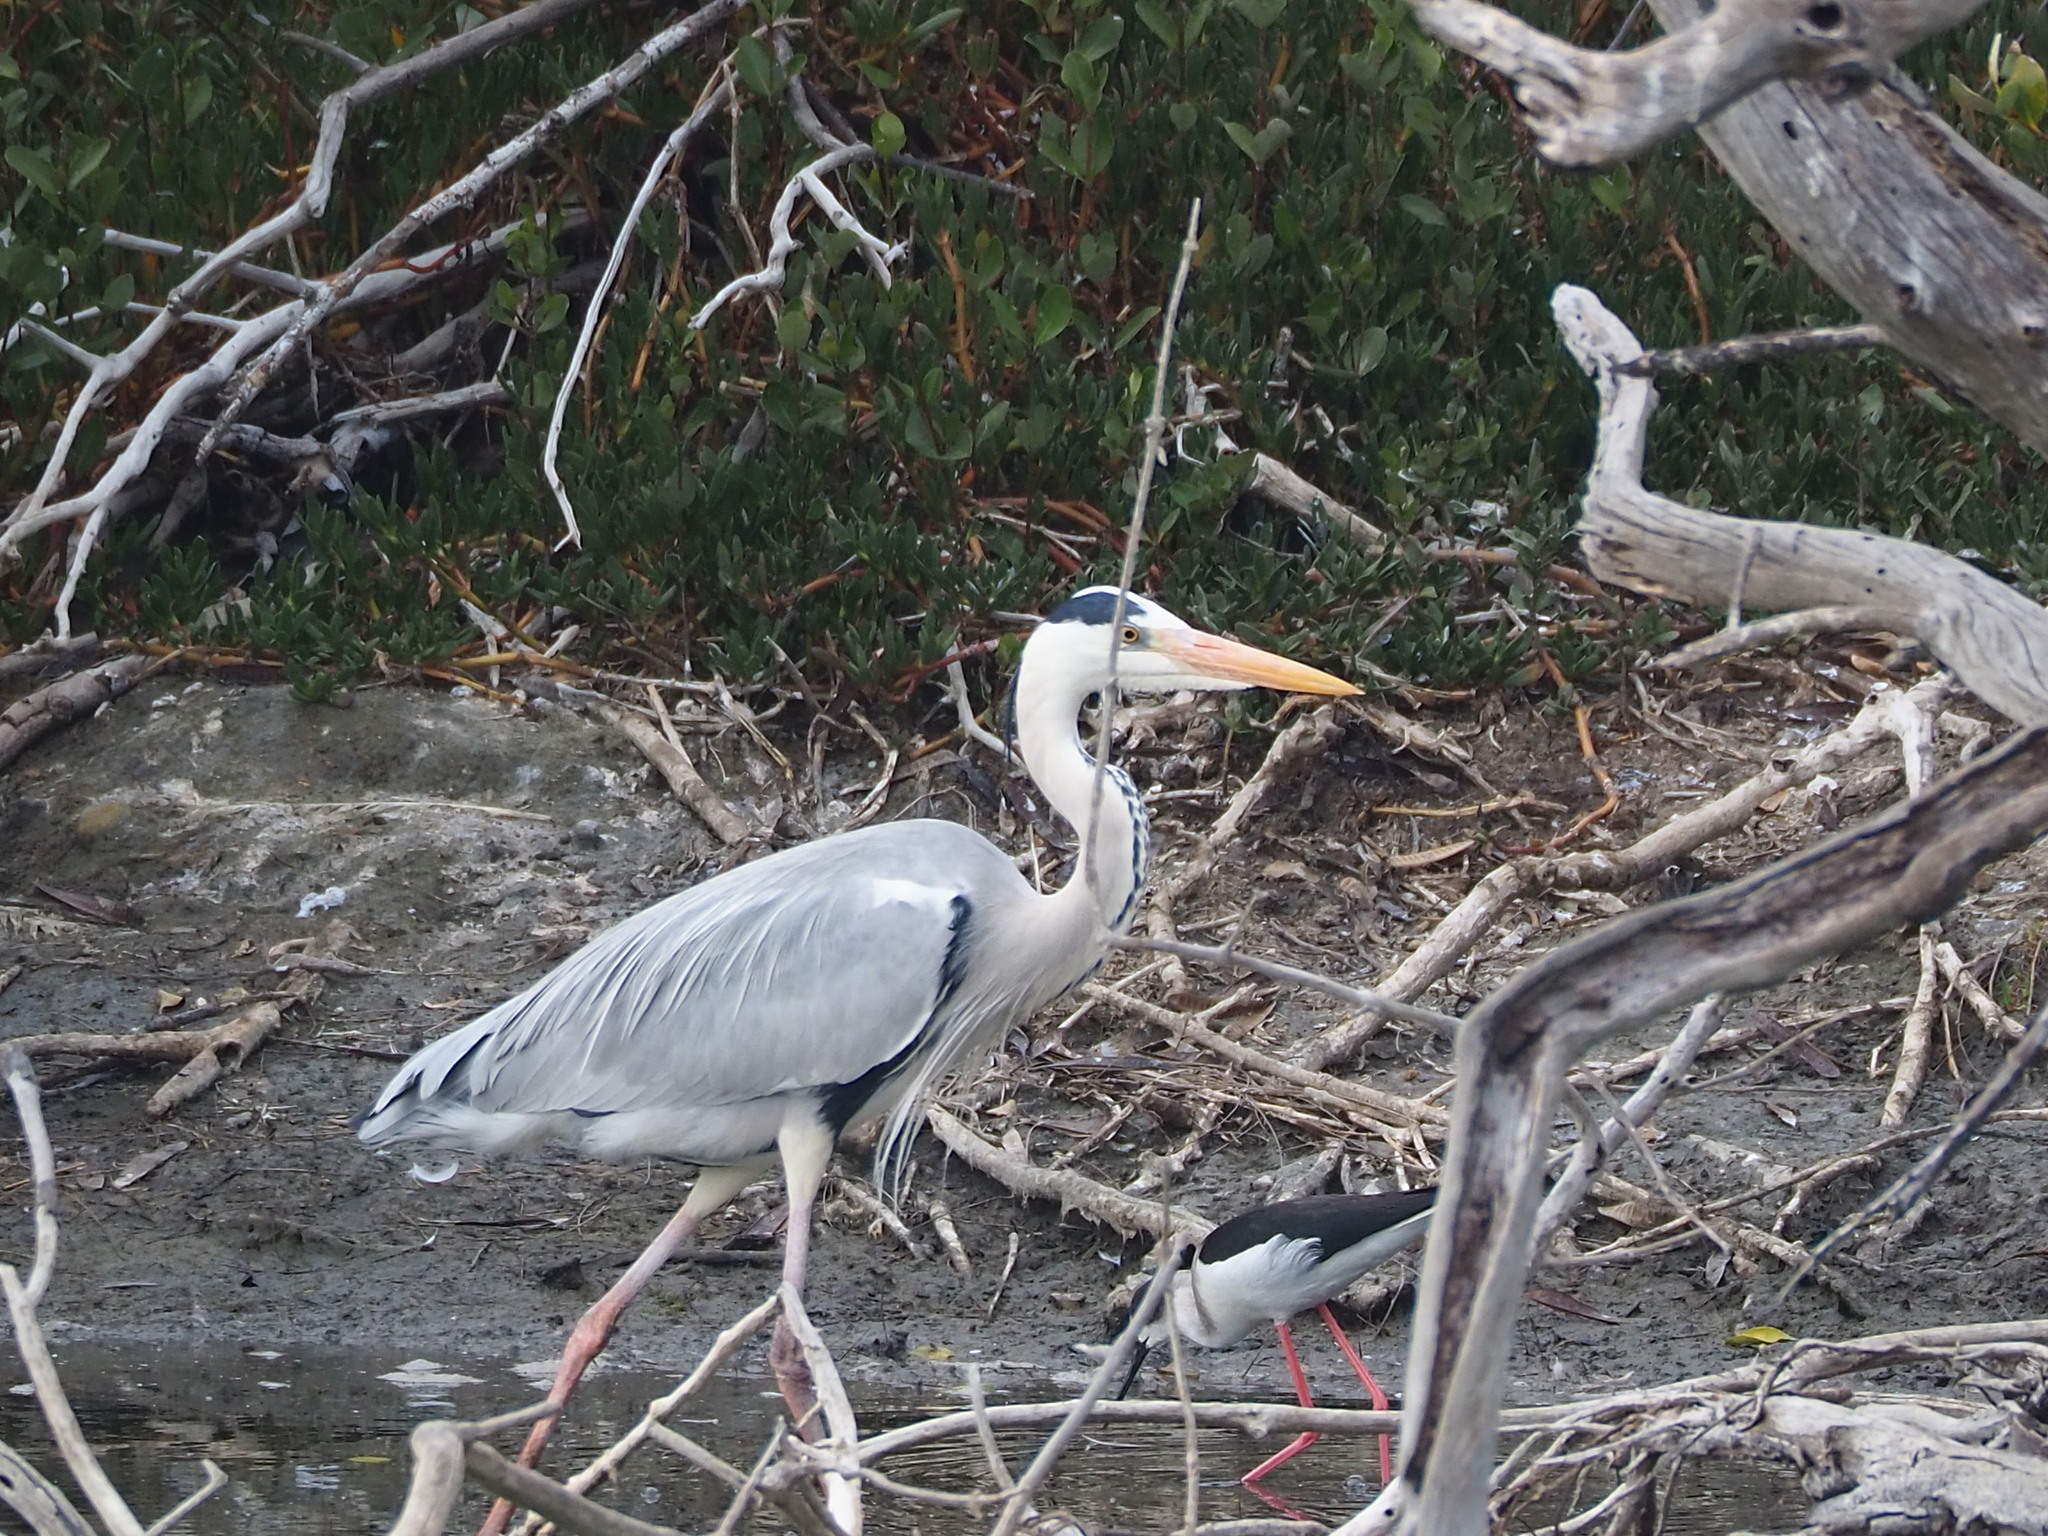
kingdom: Animalia
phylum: Chordata
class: Aves
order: Pelecaniformes
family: Ardeidae
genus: Ardea
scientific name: Ardea cinerea
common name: Grey heron
